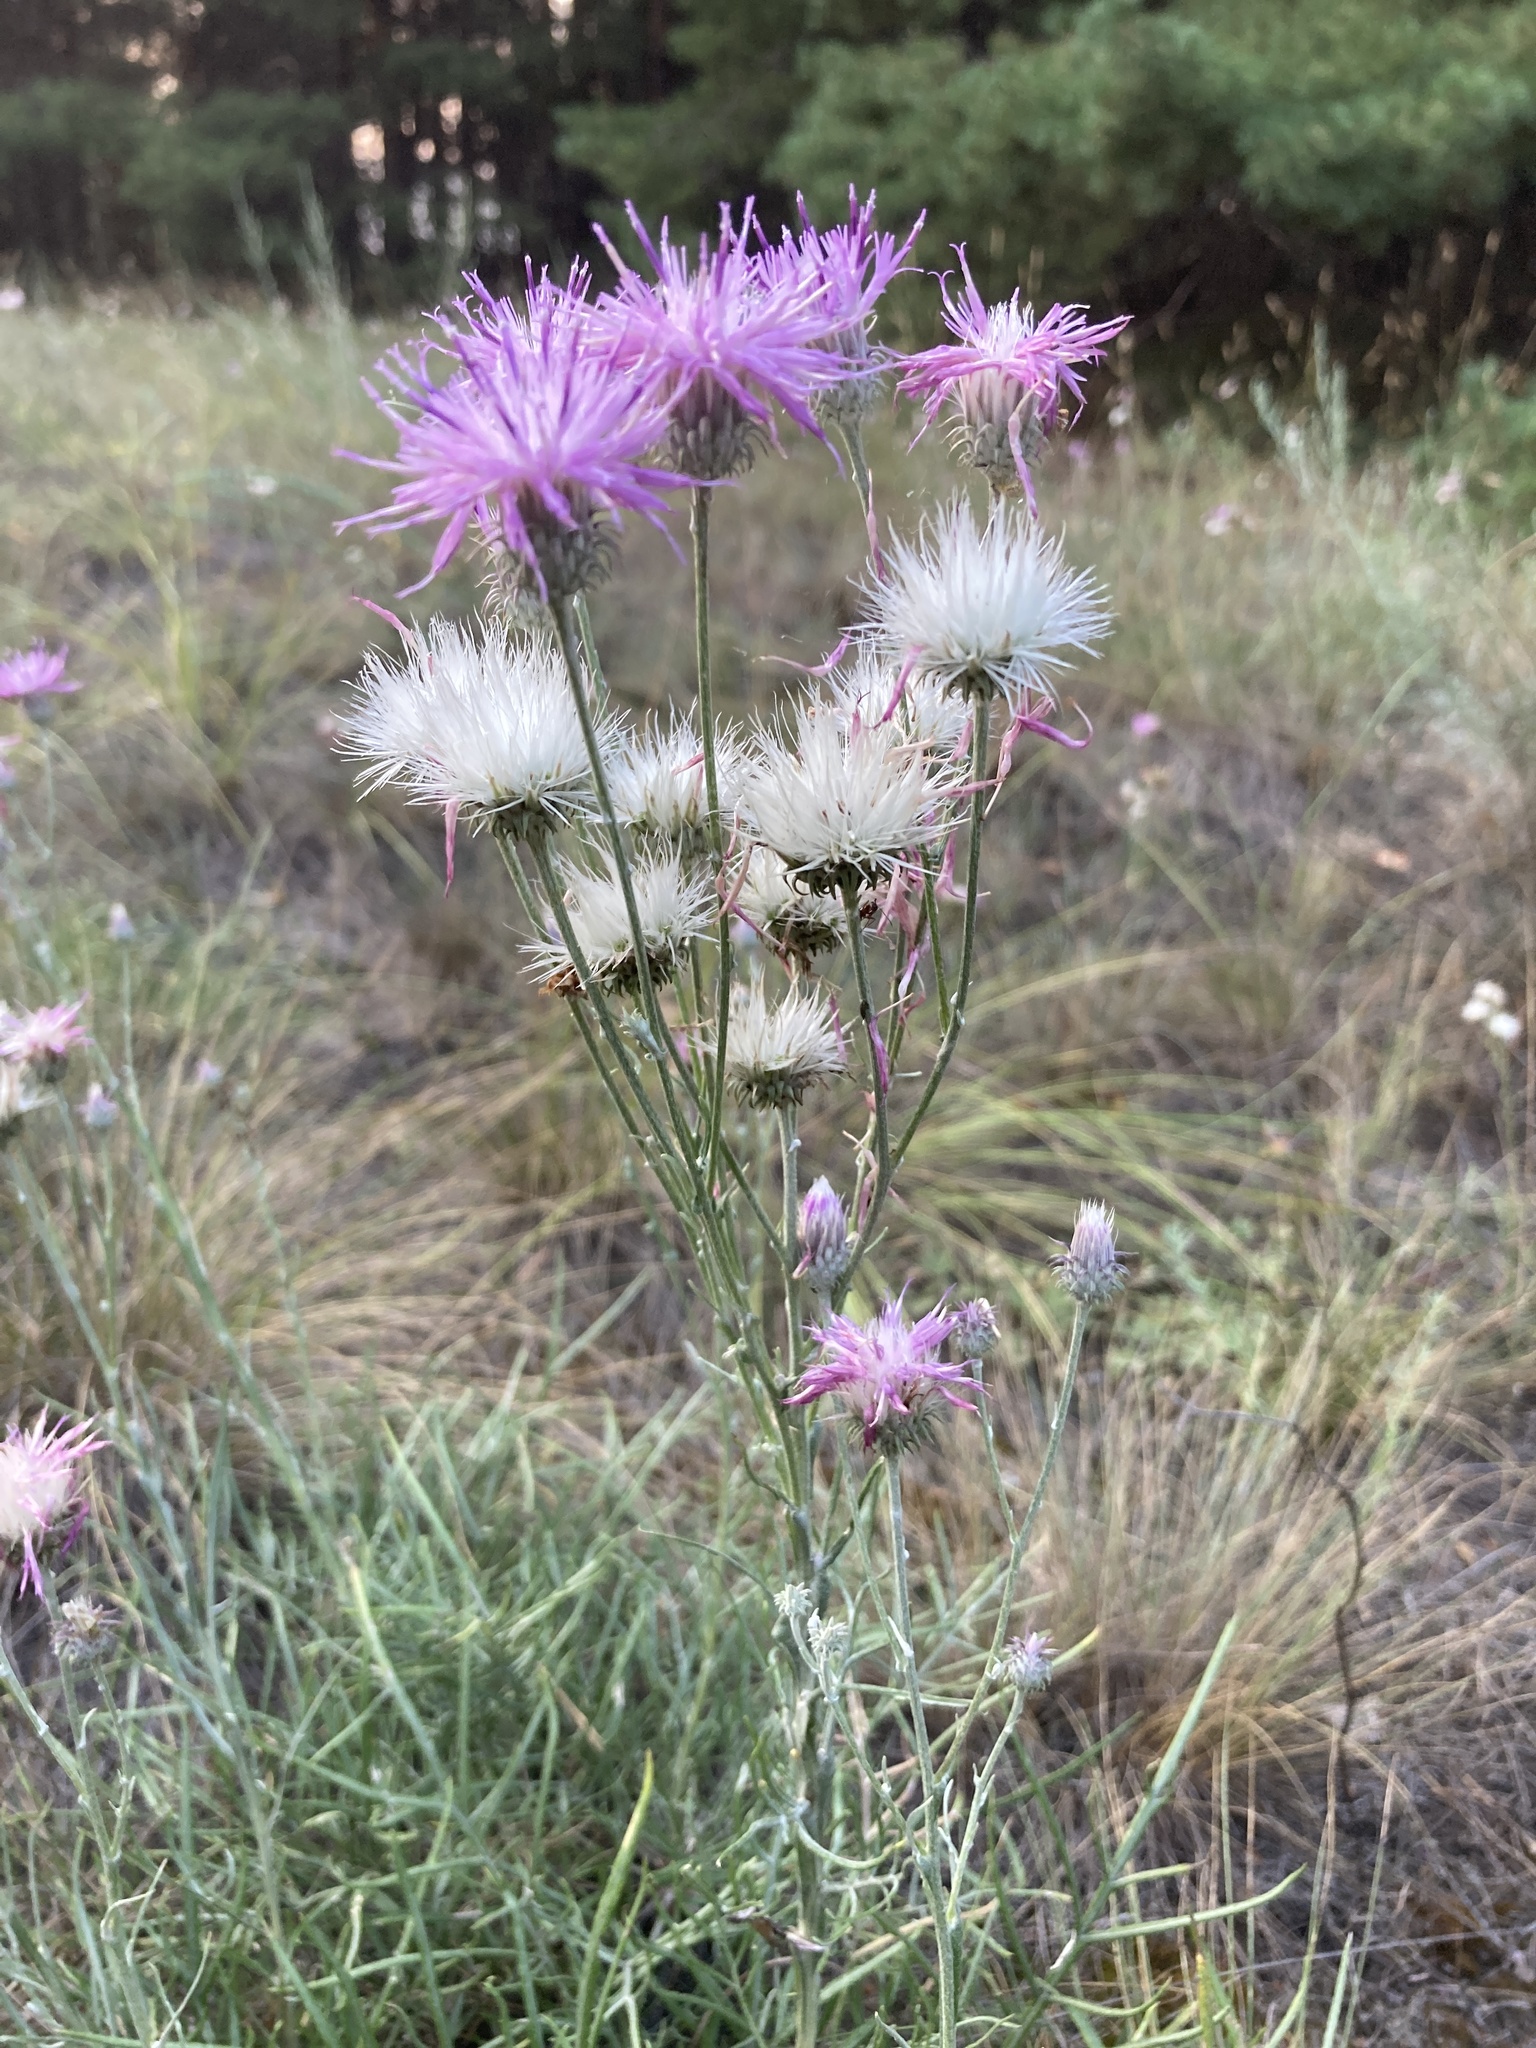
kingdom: Plantae
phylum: Tracheophyta
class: Magnoliopsida
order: Asterales
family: Asteraceae
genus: Jurinea
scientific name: Jurinea polyclonos
